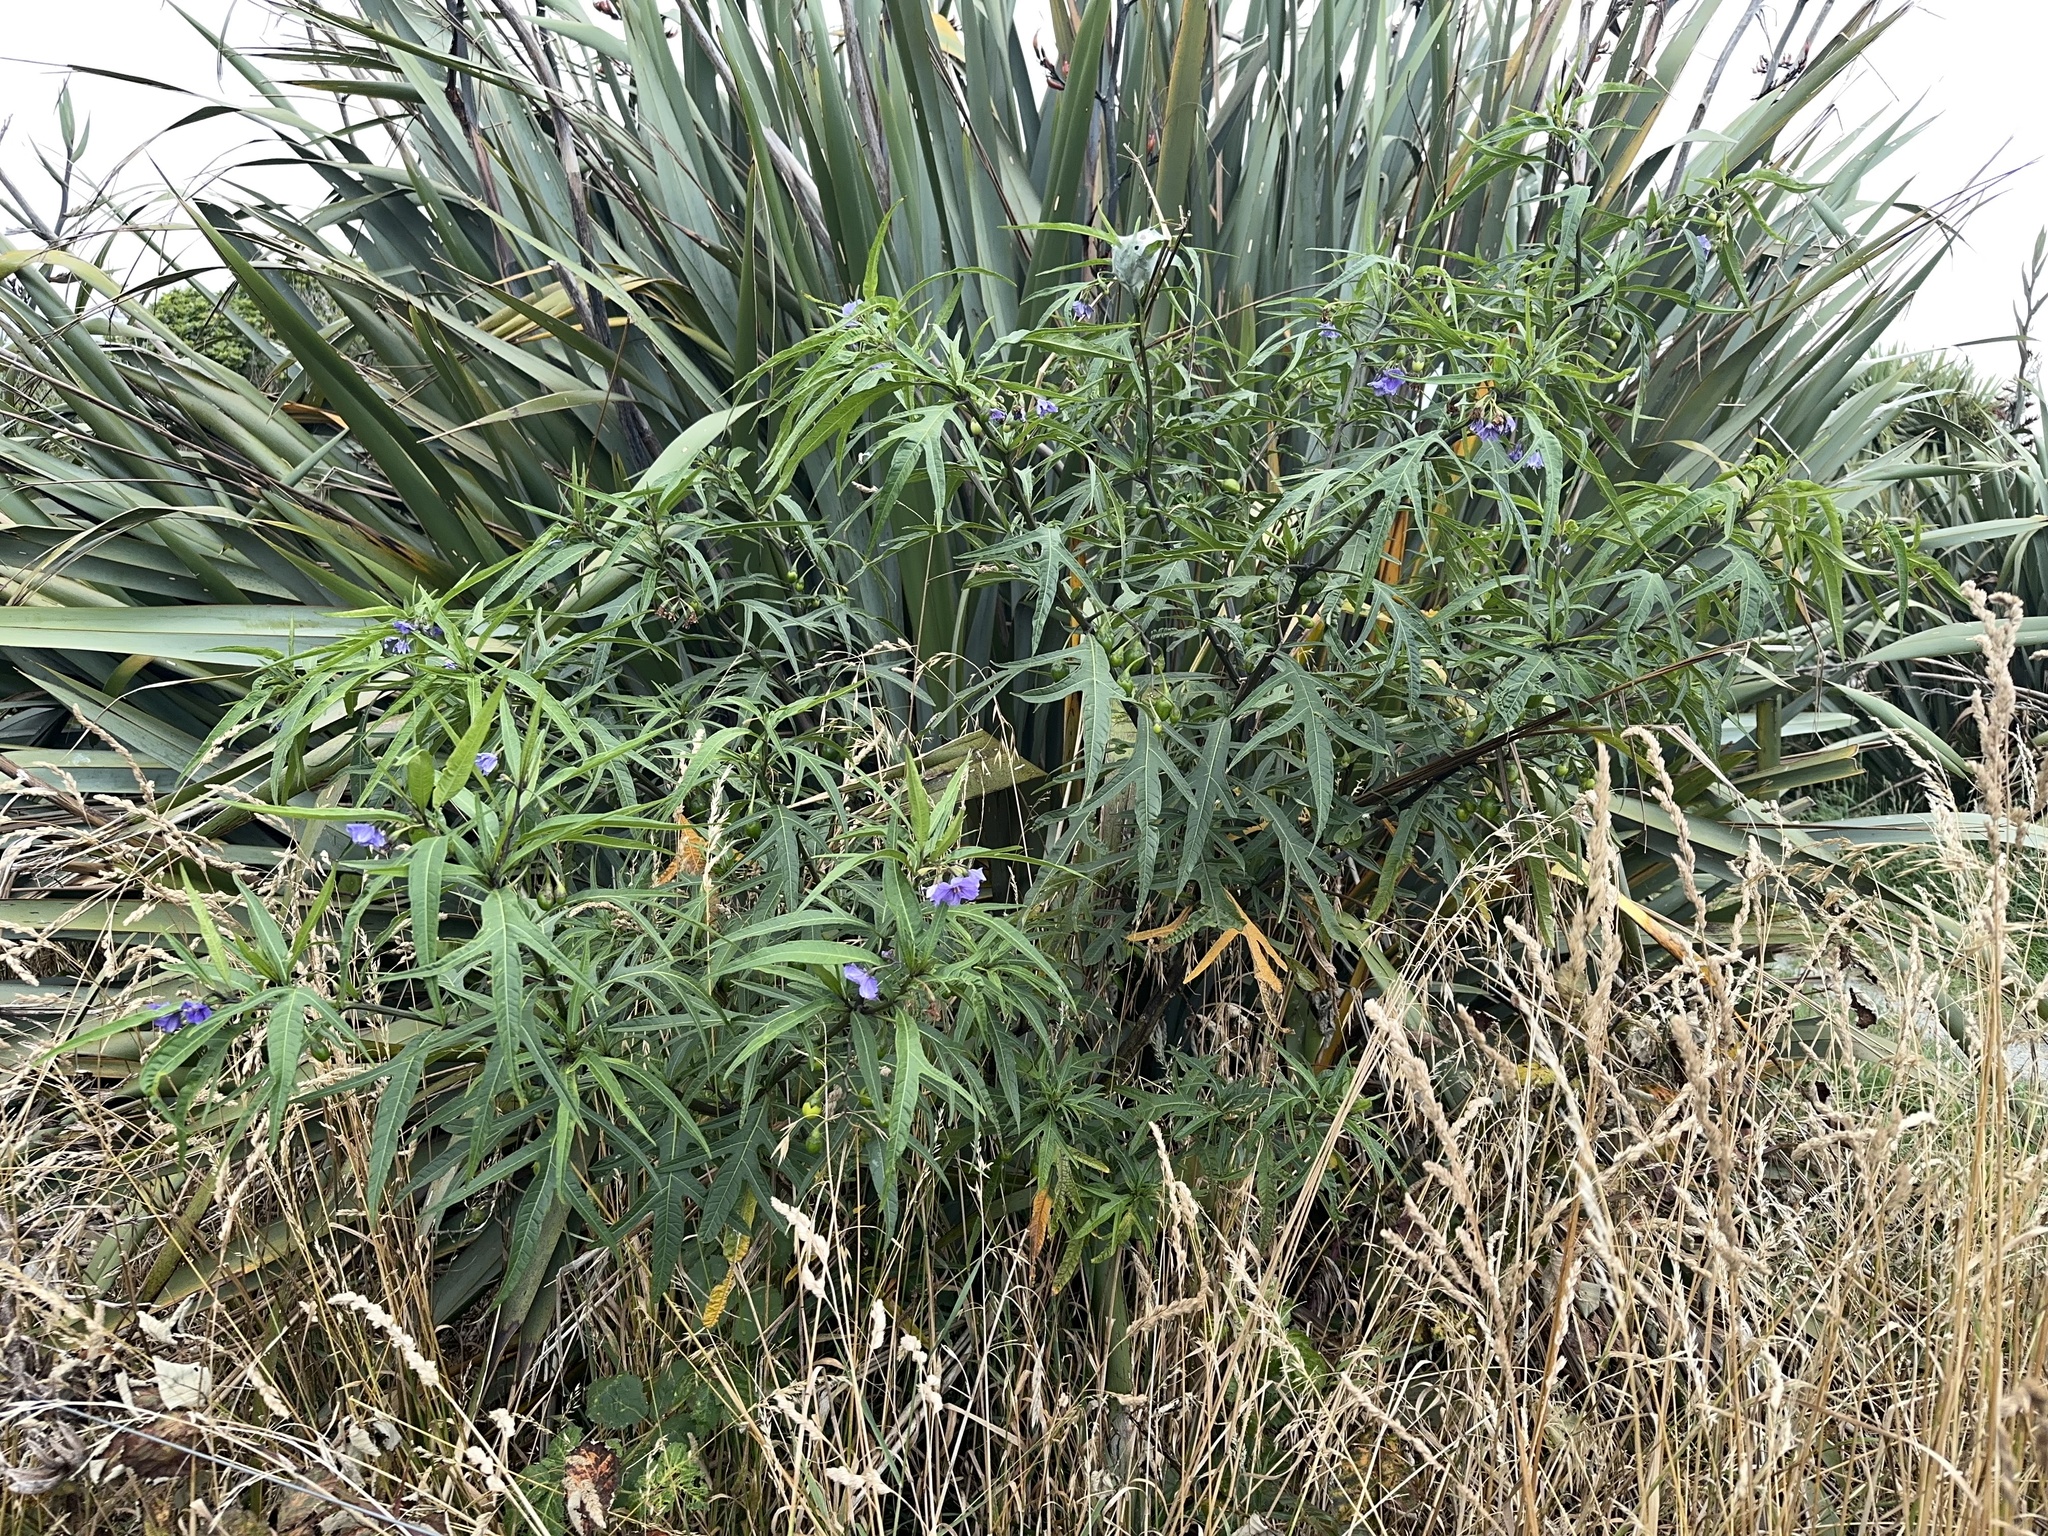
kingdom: Plantae
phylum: Tracheophyta
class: Magnoliopsida
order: Solanales
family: Solanaceae
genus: Solanum
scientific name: Solanum laciniatum
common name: Kangaroo-apple
